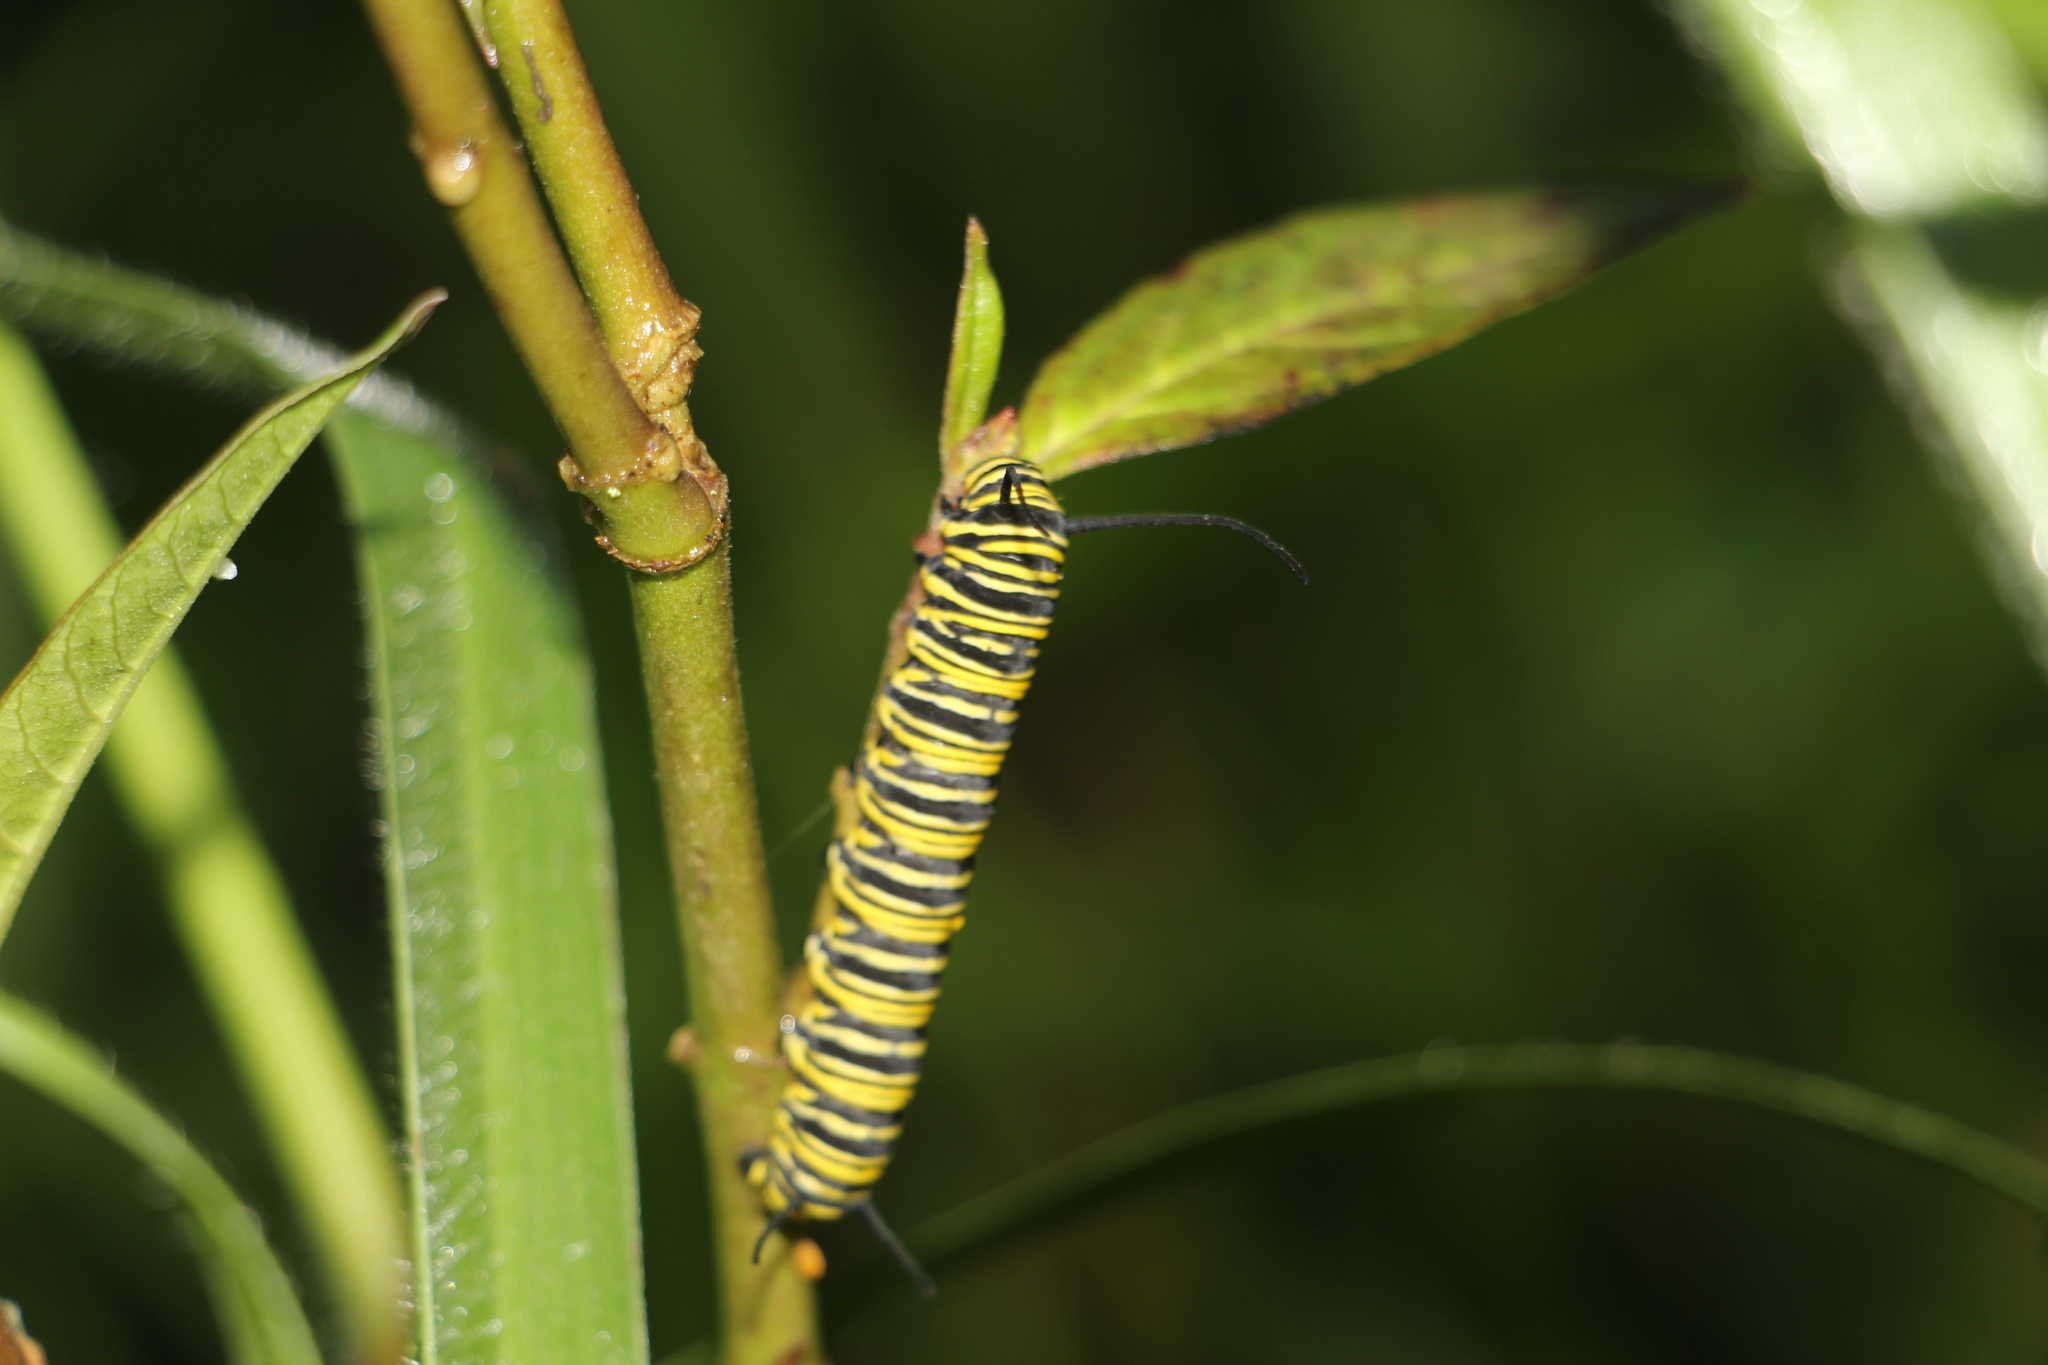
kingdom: Animalia
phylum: Arthropoda
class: Insecta
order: Lepidoptera
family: Nymphalidae
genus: Danaus
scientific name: Danaus plexippus
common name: Monarch
